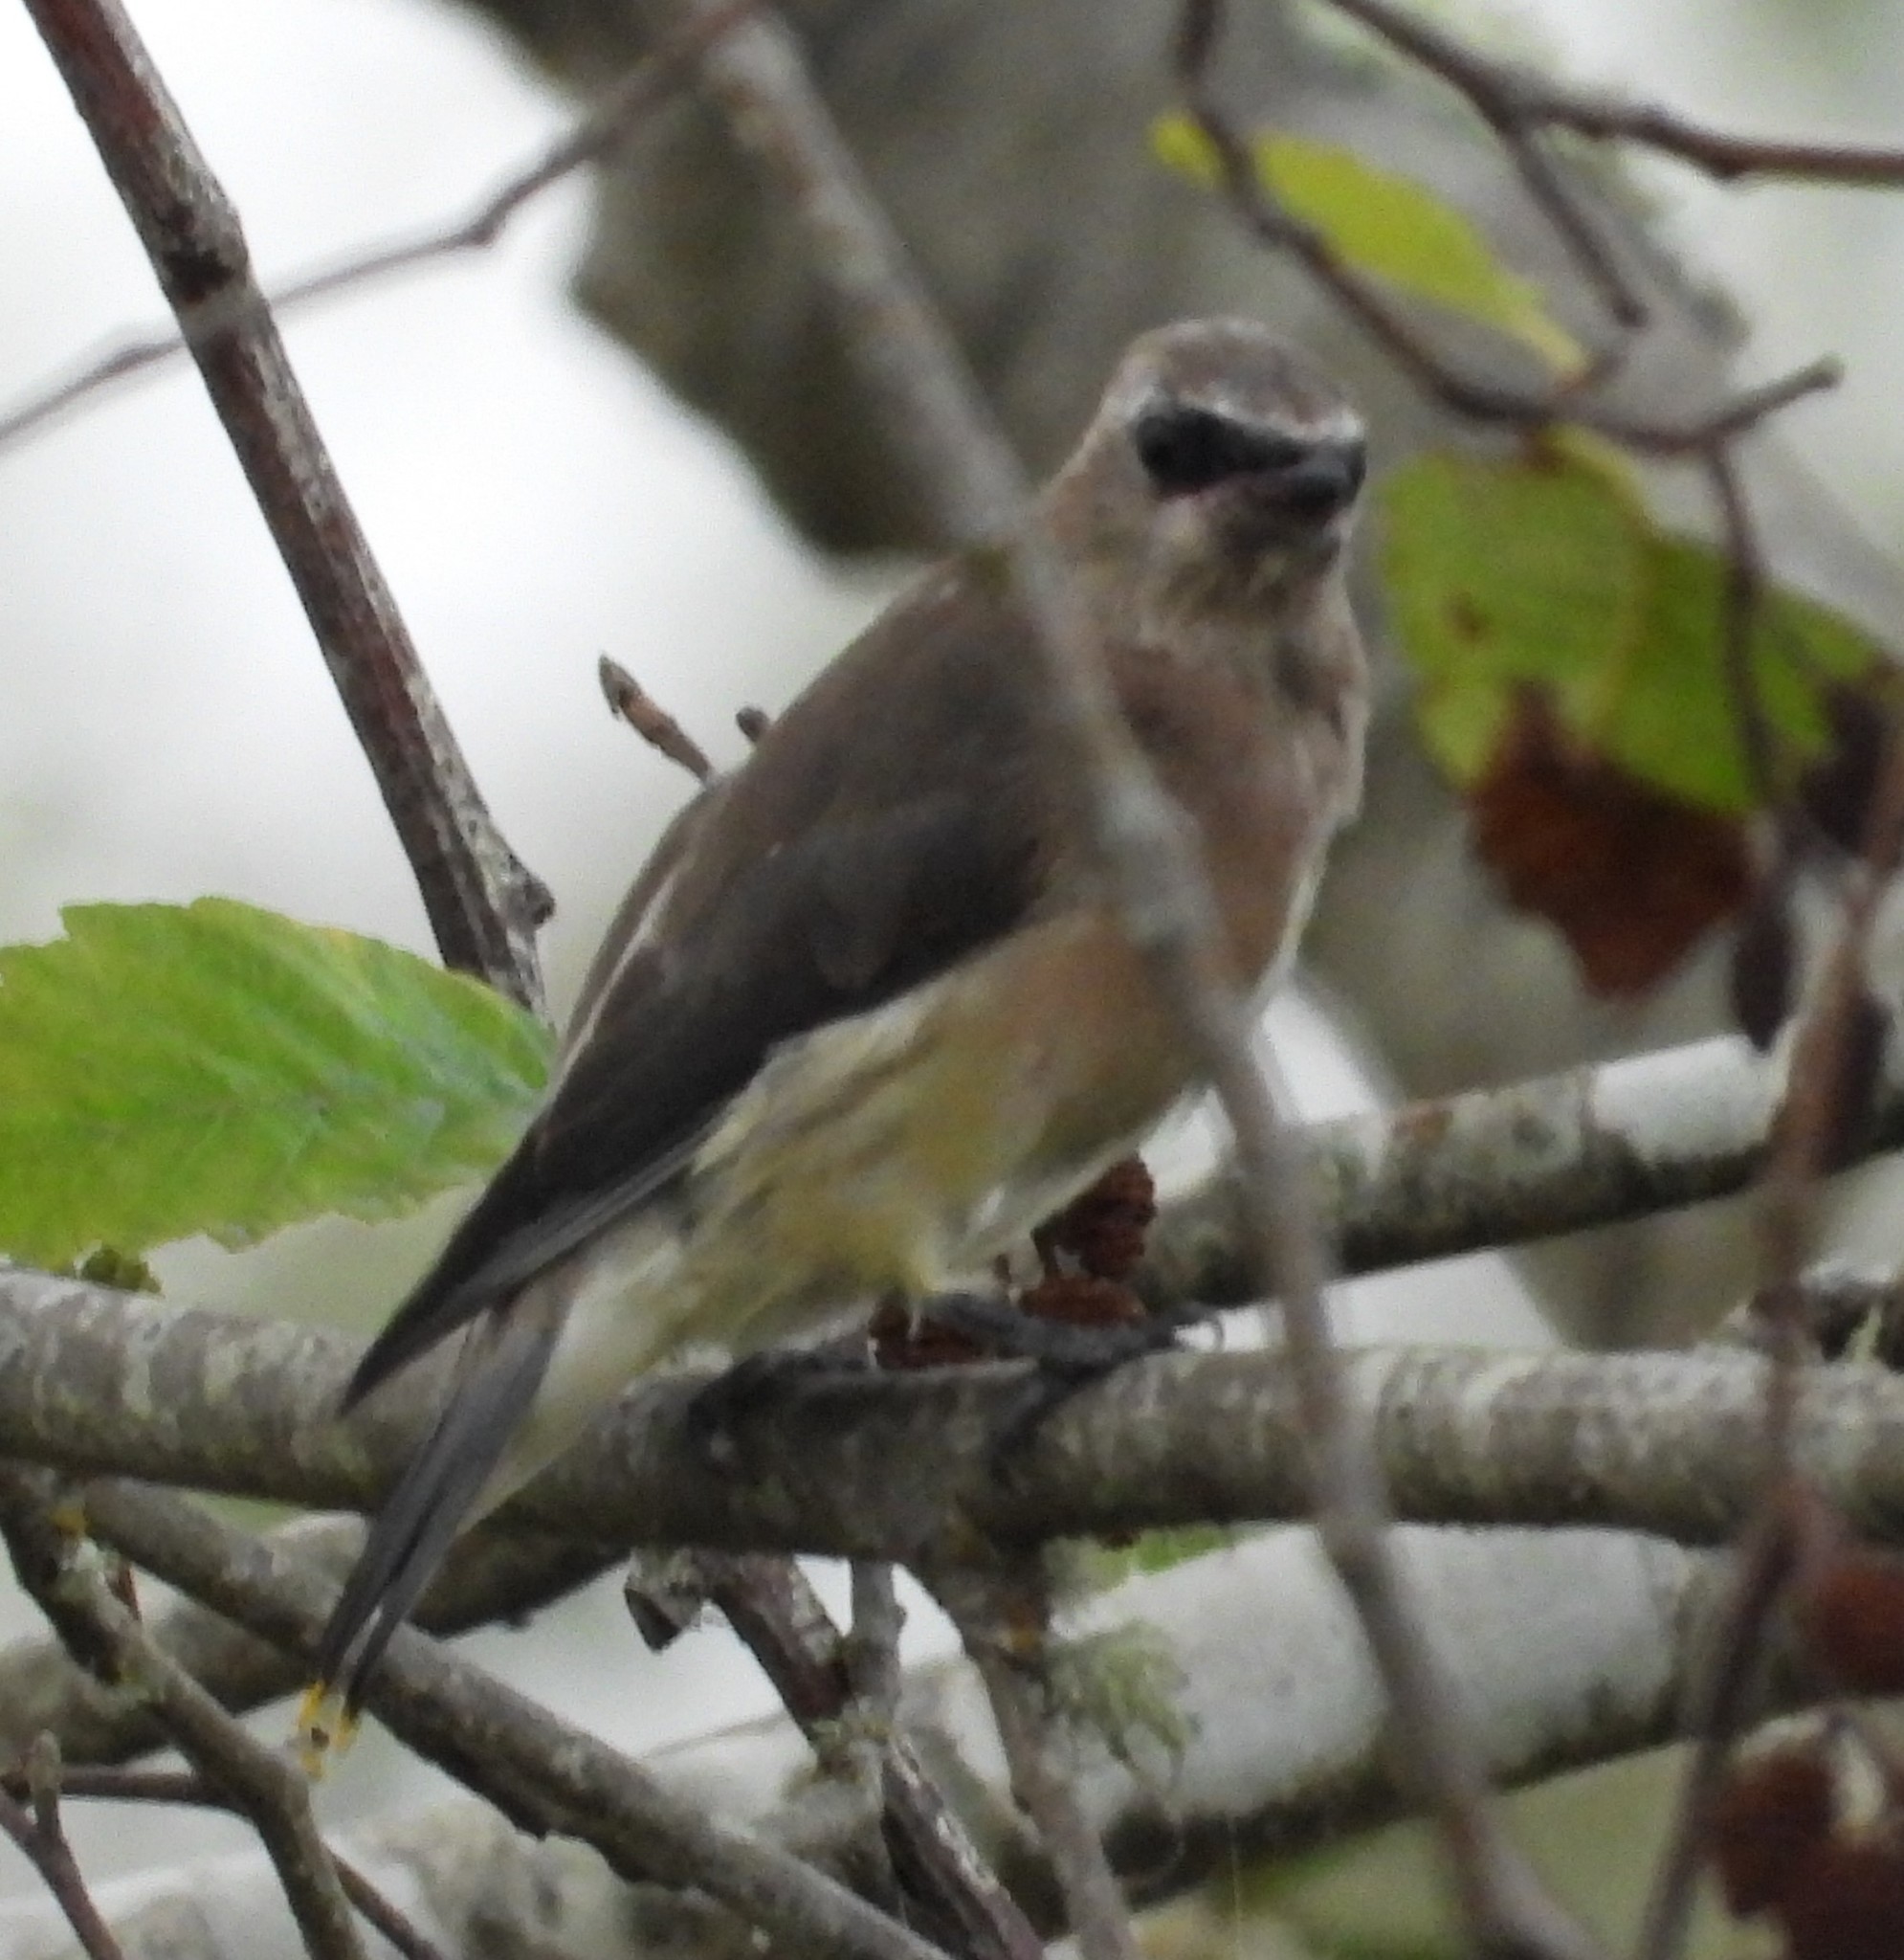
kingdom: Animalia
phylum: Chordata
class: Aves
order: Passeriformes
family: Bombycillidae
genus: Bombycilla
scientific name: Bombycilla cedrorum
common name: Cedar waxwing
